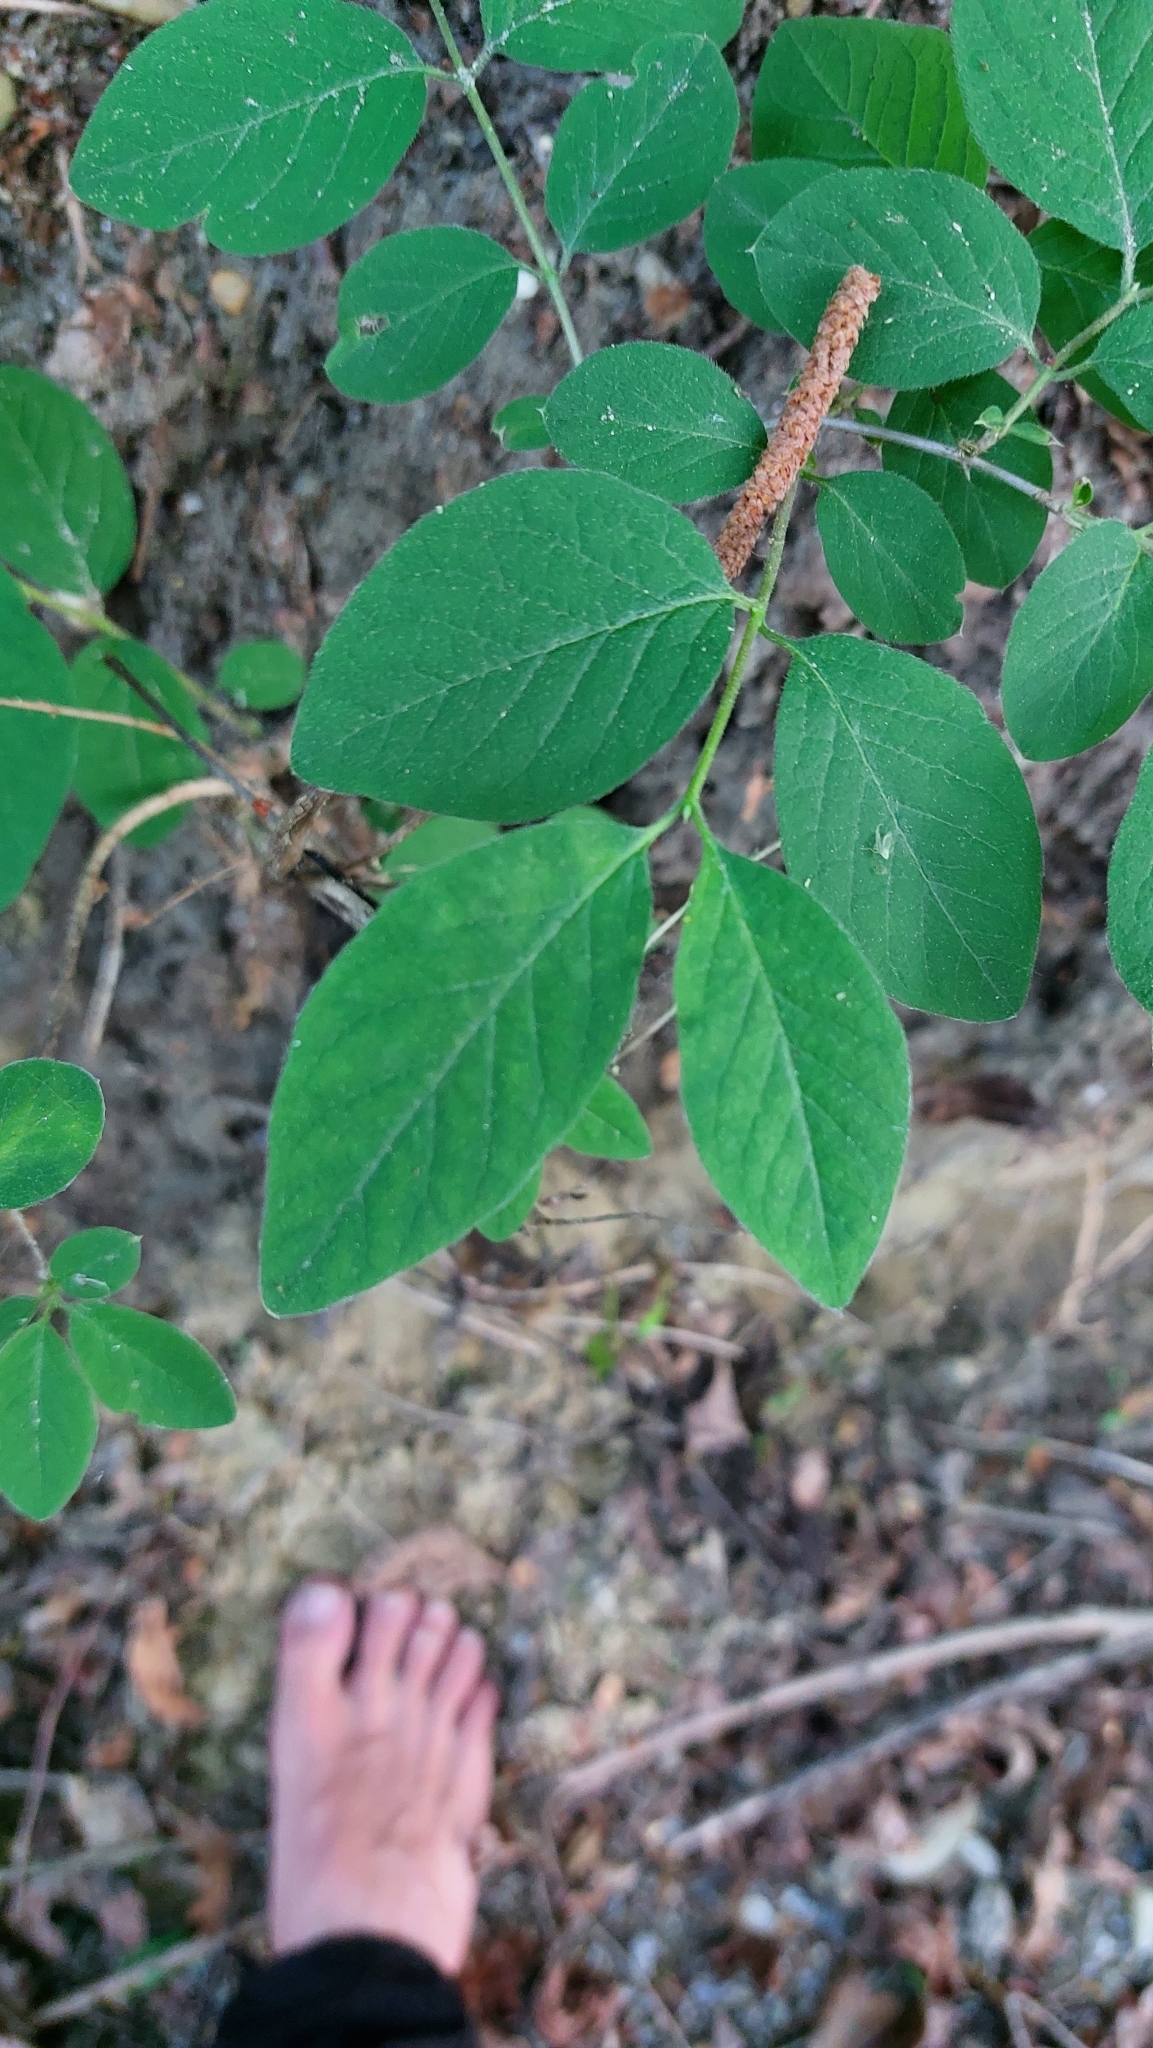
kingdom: Plantae
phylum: Tracheophyta
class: Magnoliopsida
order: Dipsacales
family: Caprifoliaceae
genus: Lonicera
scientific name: Lonicera xylosteum
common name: Fly honeysuckle
